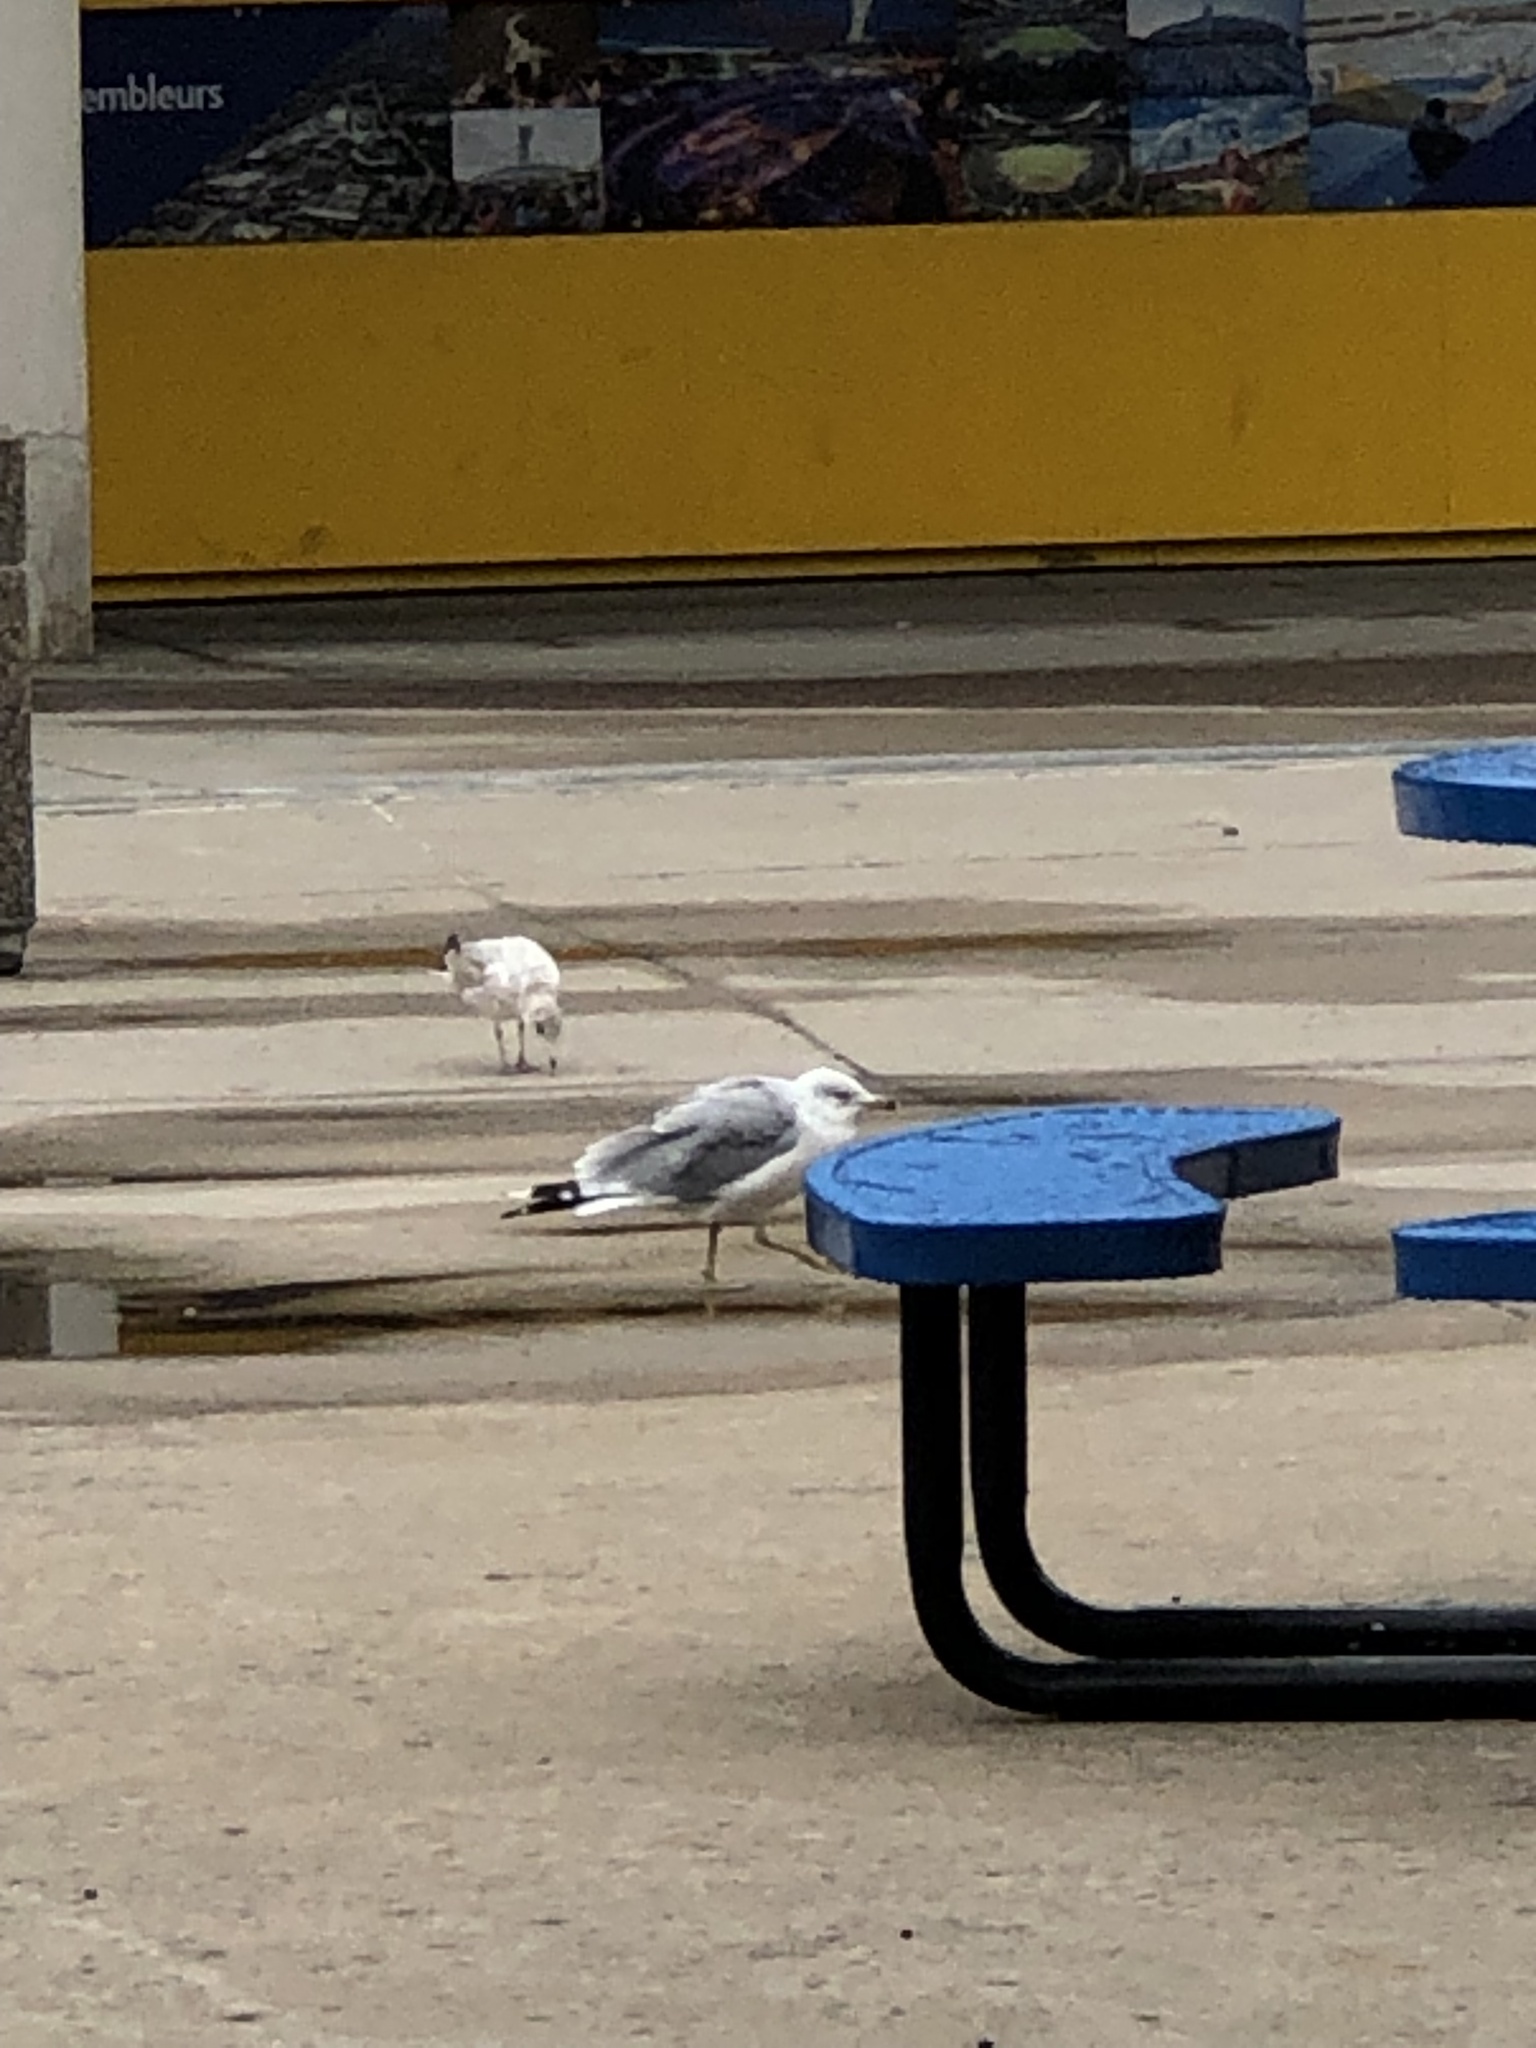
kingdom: Animalia
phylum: Chordata
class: Aves
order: Charadriiformes
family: Laridae
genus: Larus
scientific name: Larus delawarensis
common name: Ring-billed gull
